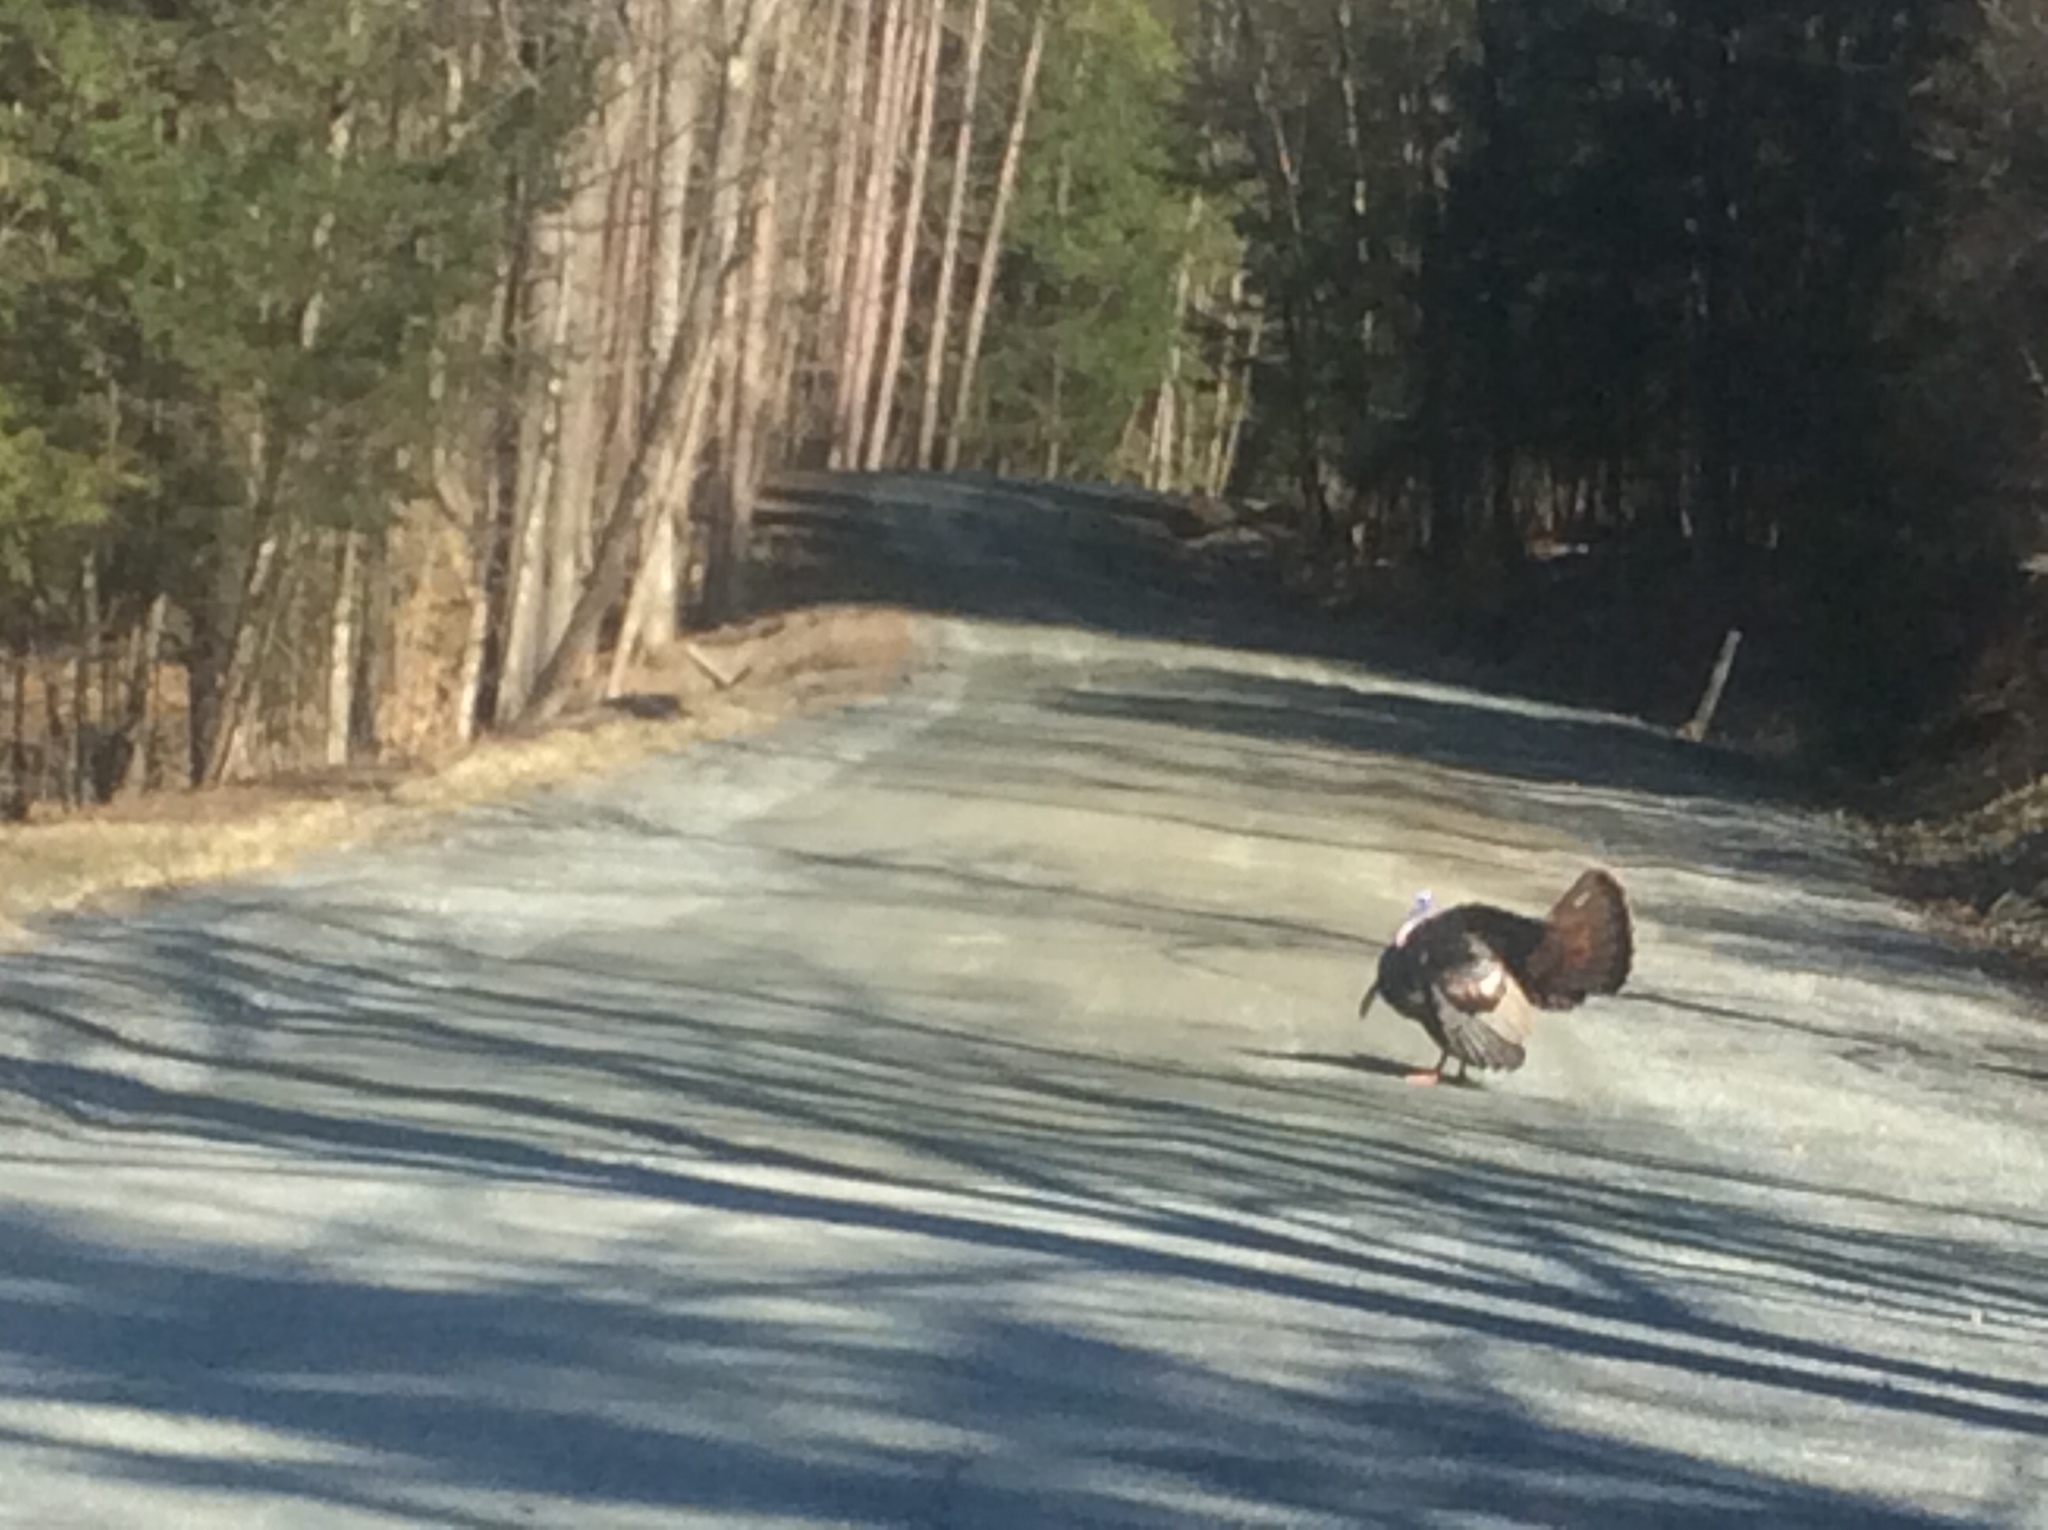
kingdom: Animalia
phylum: Chordata
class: Aves
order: Galliformes
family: Phasianidae
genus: Meleagris
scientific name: Meleagris gallopavo
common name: Wild turkey
